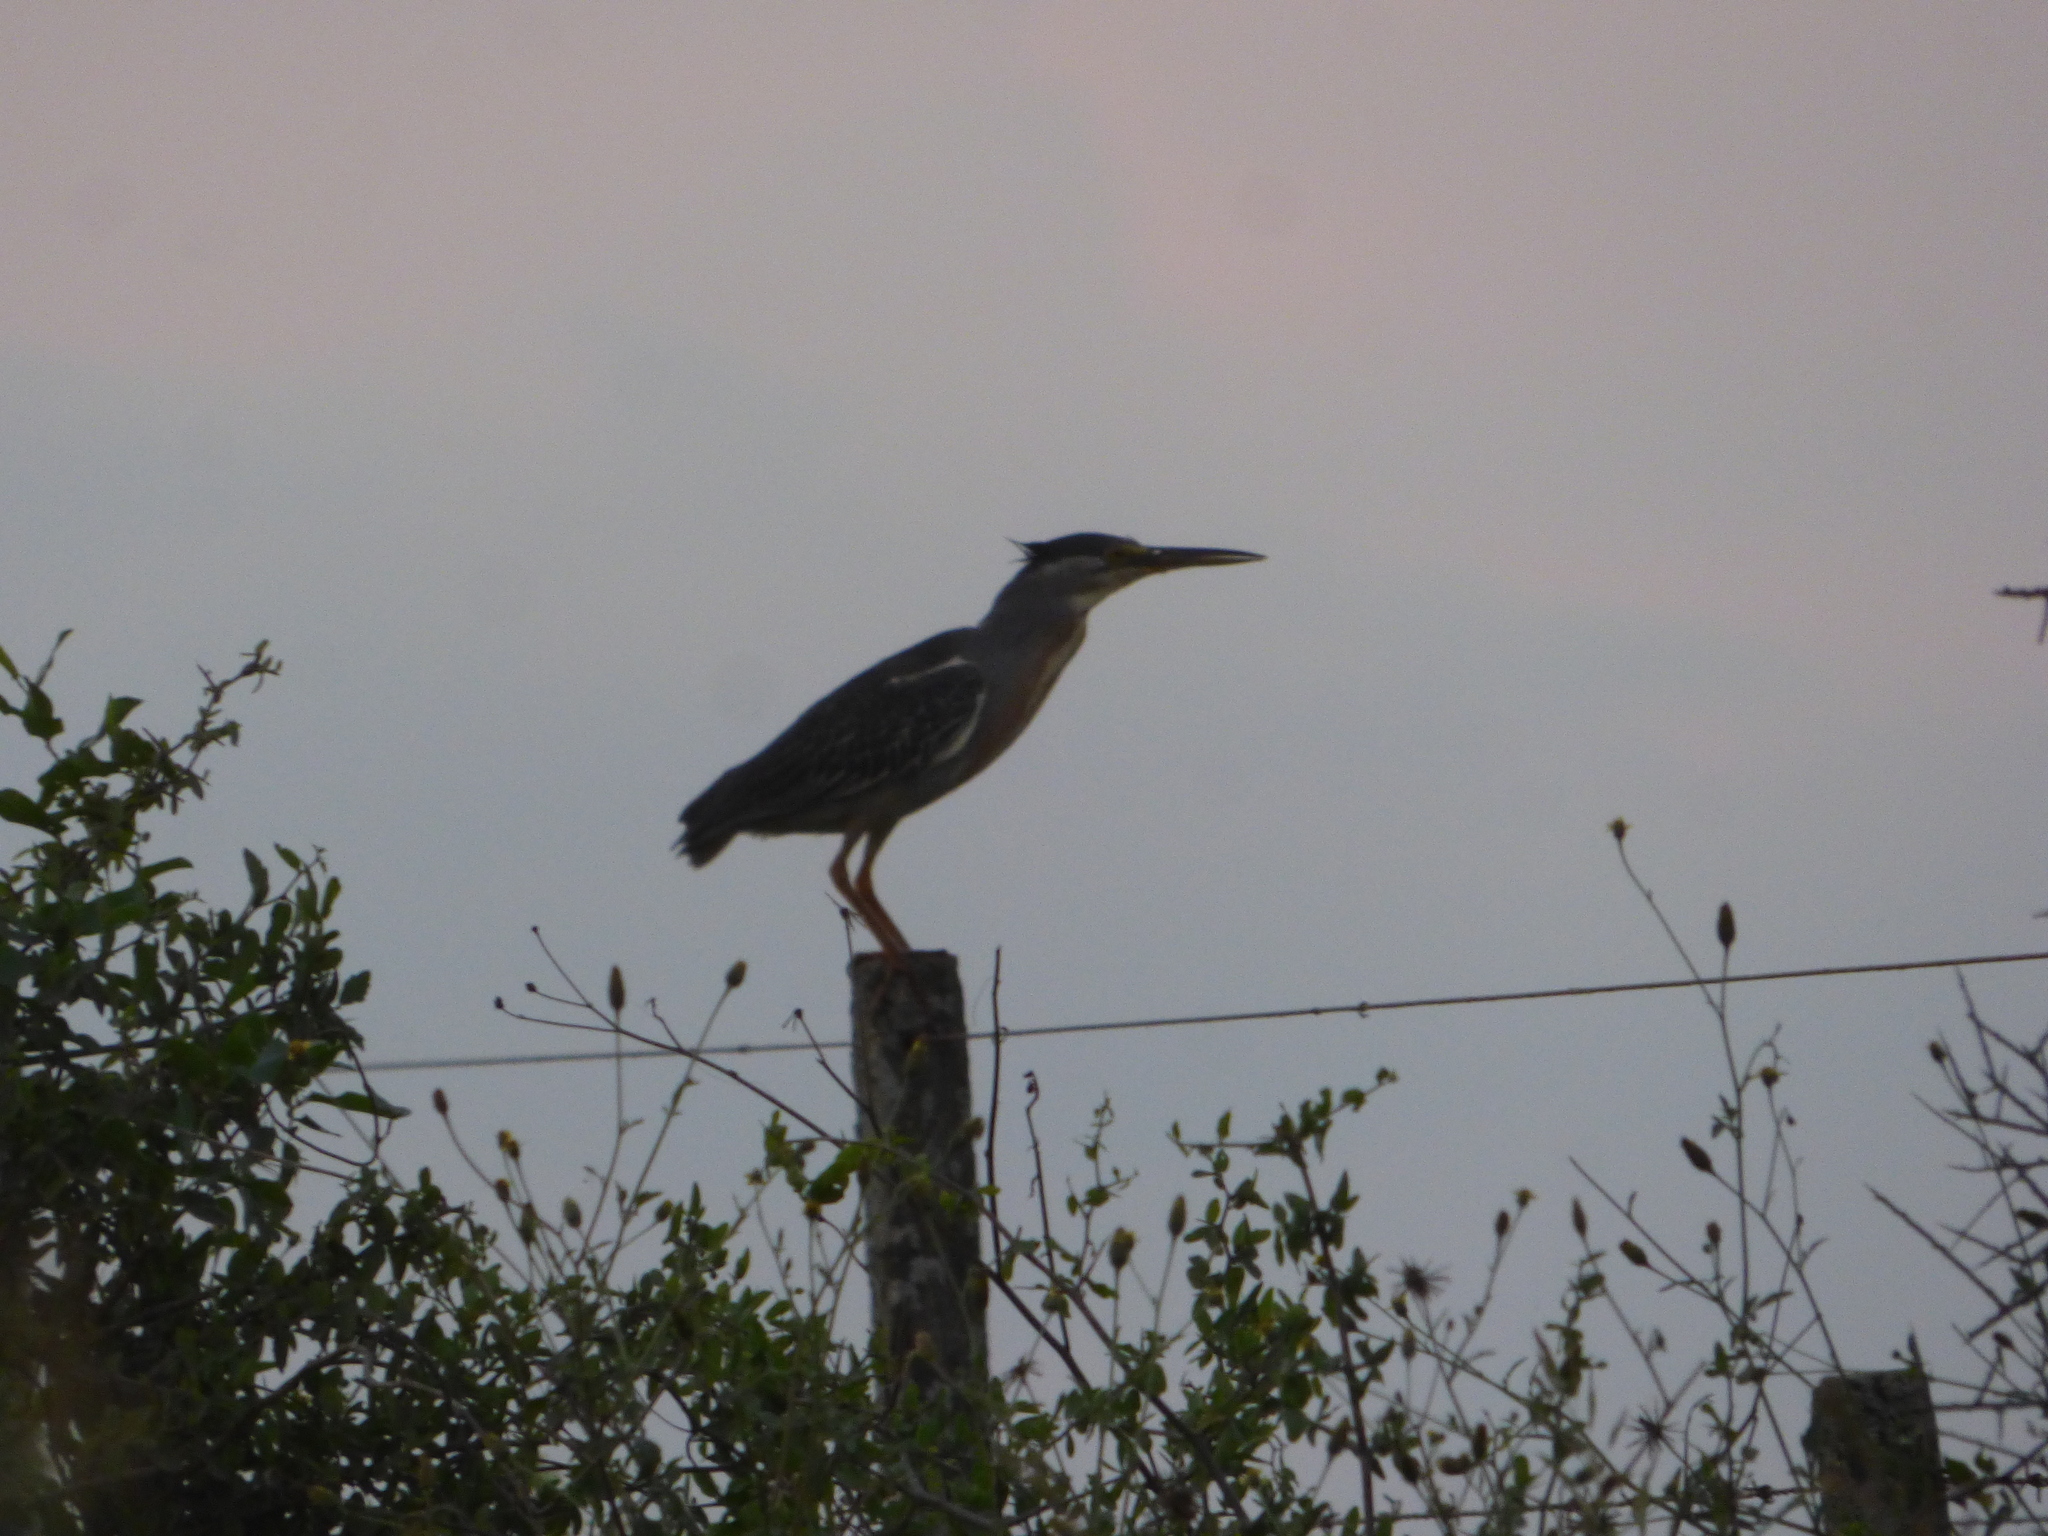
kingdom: Animalia
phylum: Chordata
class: Aves
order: Pelecaniformes
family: Ardeidae
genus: Butorides
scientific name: Butorides striata
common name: Striated heron
